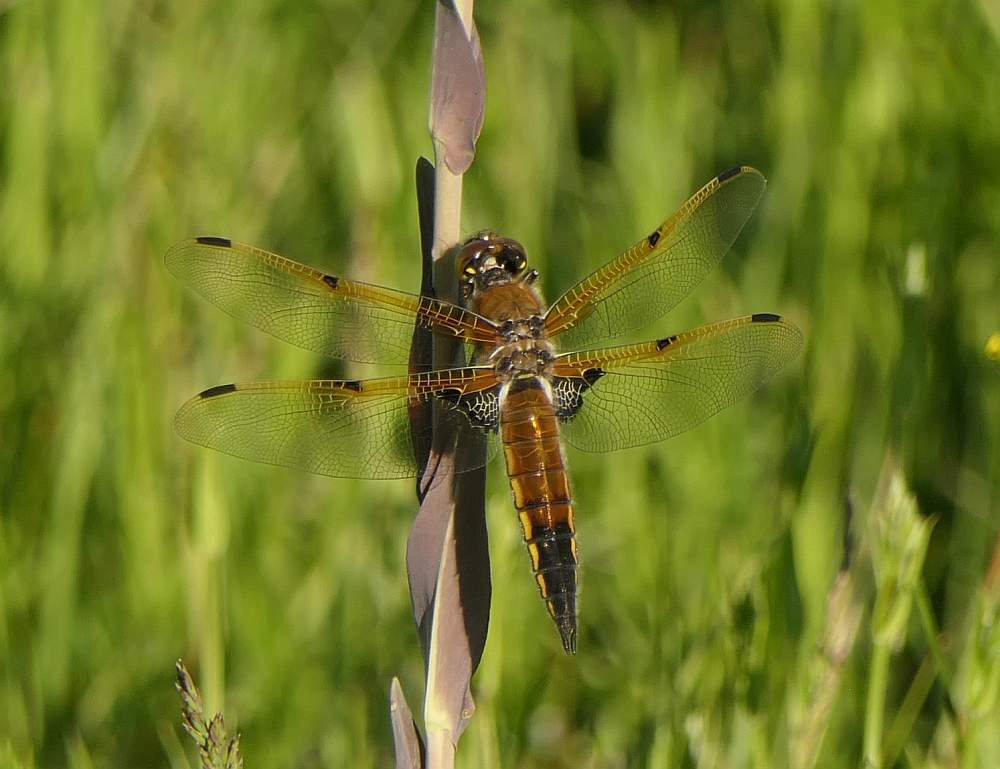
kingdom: Animalia
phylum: Arthropoda
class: Insecta
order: Odonata
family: Libellulidae
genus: Libellula
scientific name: Libellula quadrimaculata
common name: Four-spotted chaser
